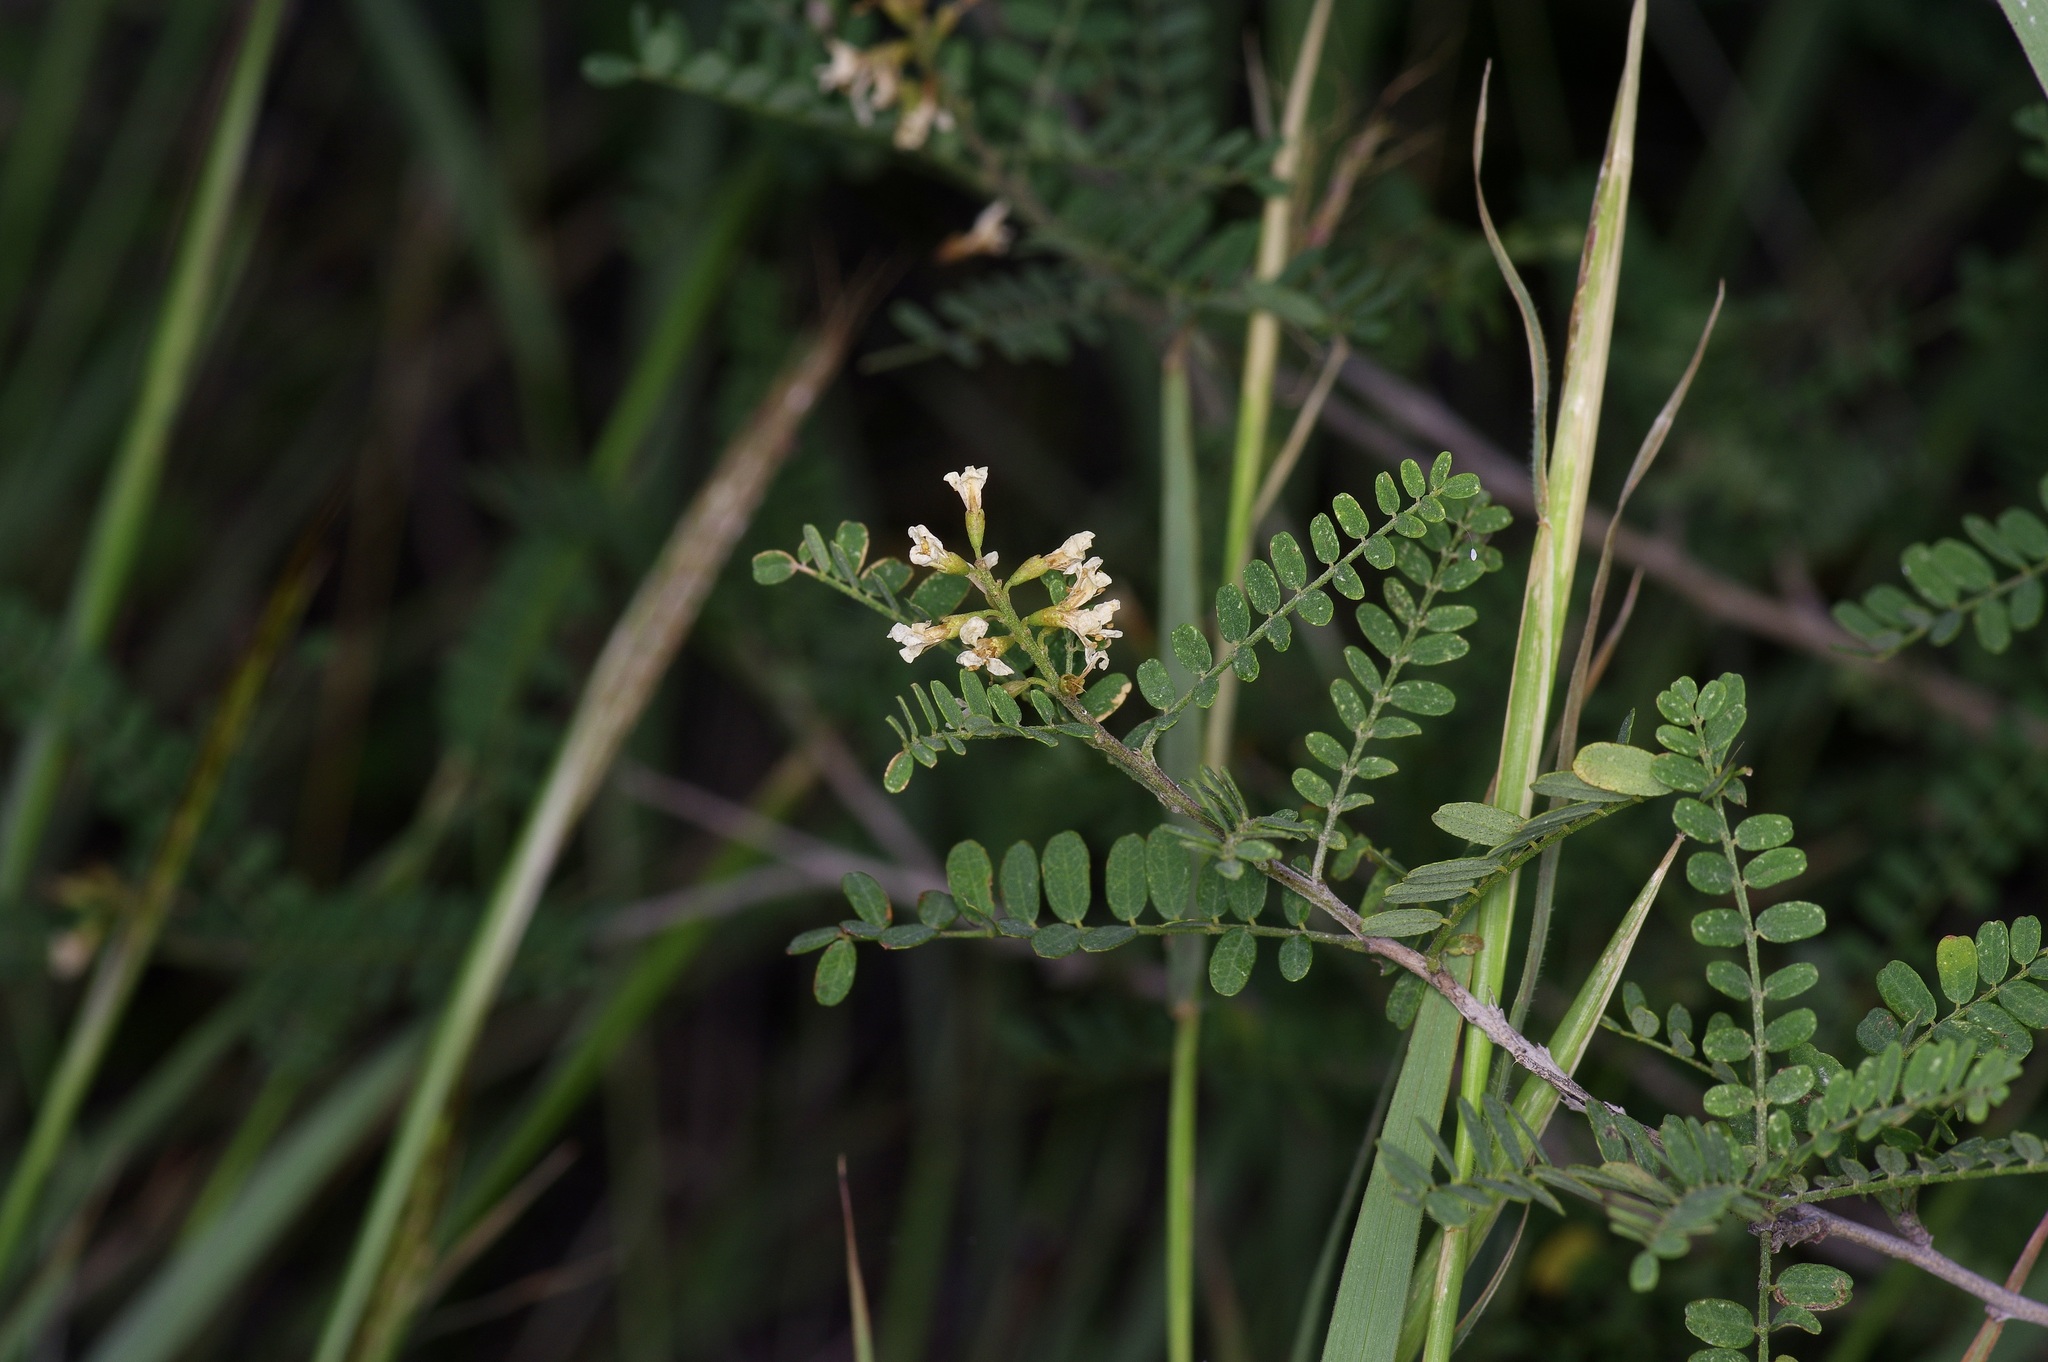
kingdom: Plantae
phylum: Tracheophyta
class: Magnoliopsida
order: Fabales
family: Fabaceae
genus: Eysenhardtia
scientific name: Eysenhardtia texana
